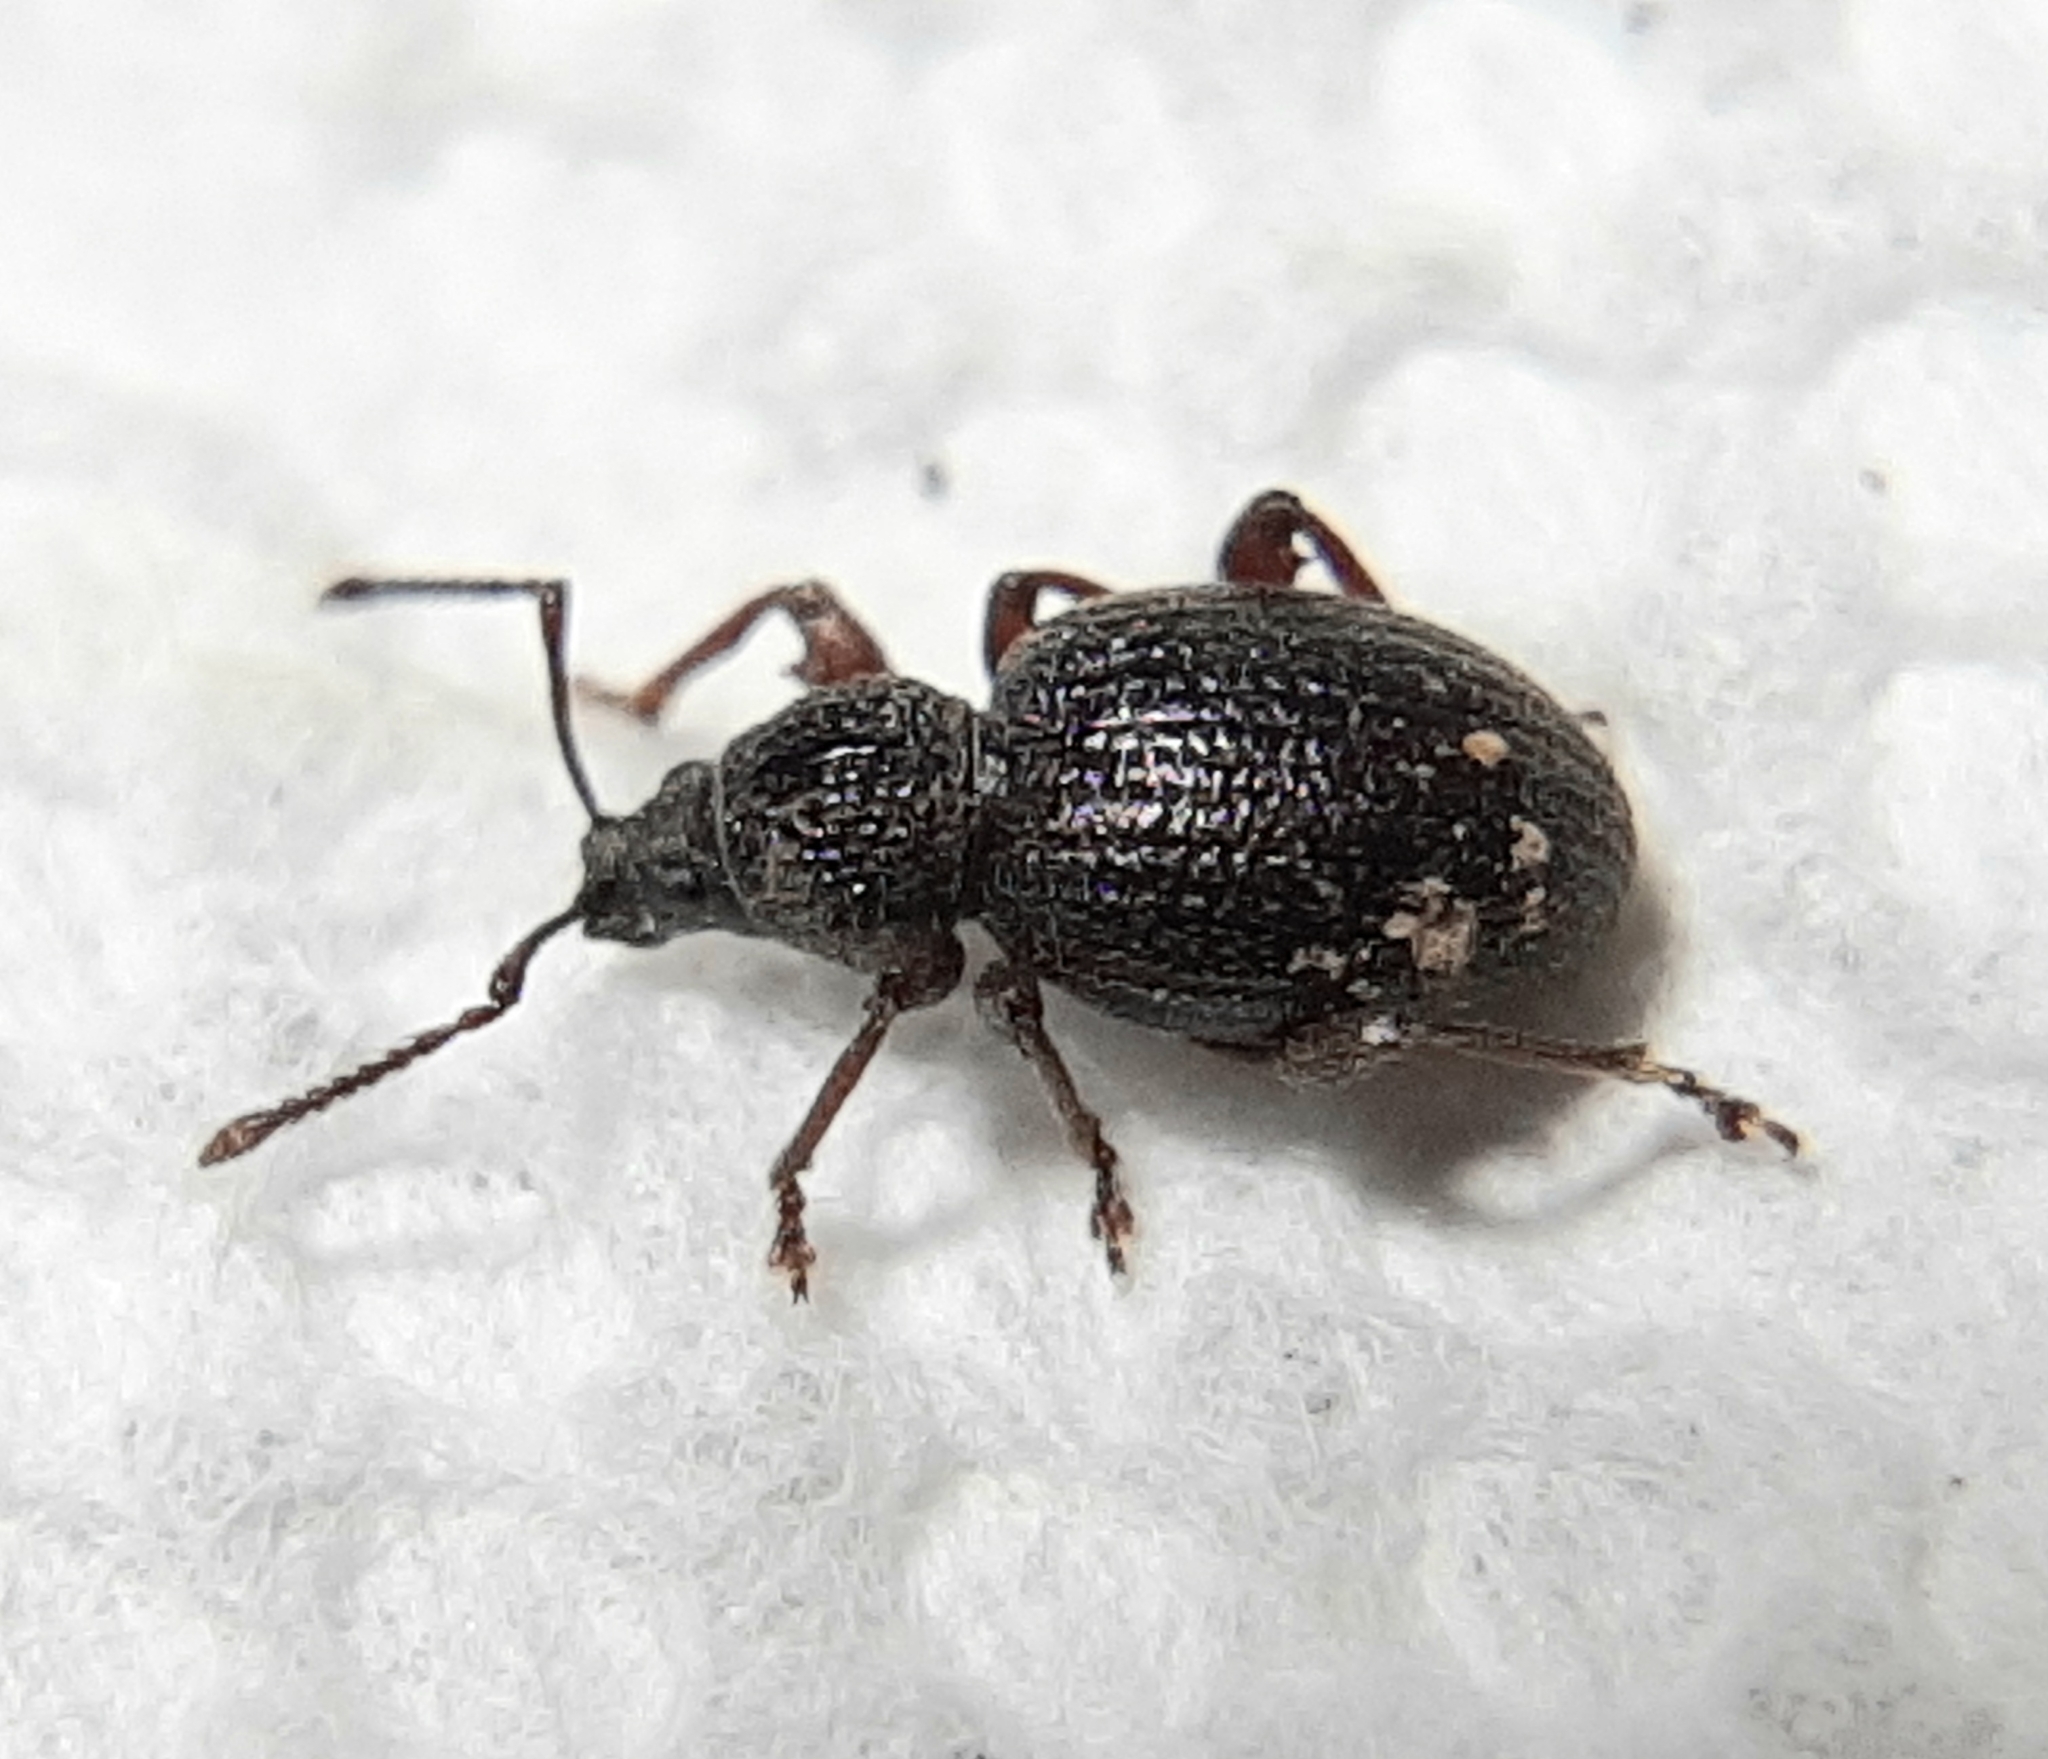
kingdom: Animalia
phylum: Arthropoda
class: Insecta
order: Coleoptera
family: Curculionidae
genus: Otiorhynchus
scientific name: Otiorhynchus ovatus
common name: Strawberry root weevil
